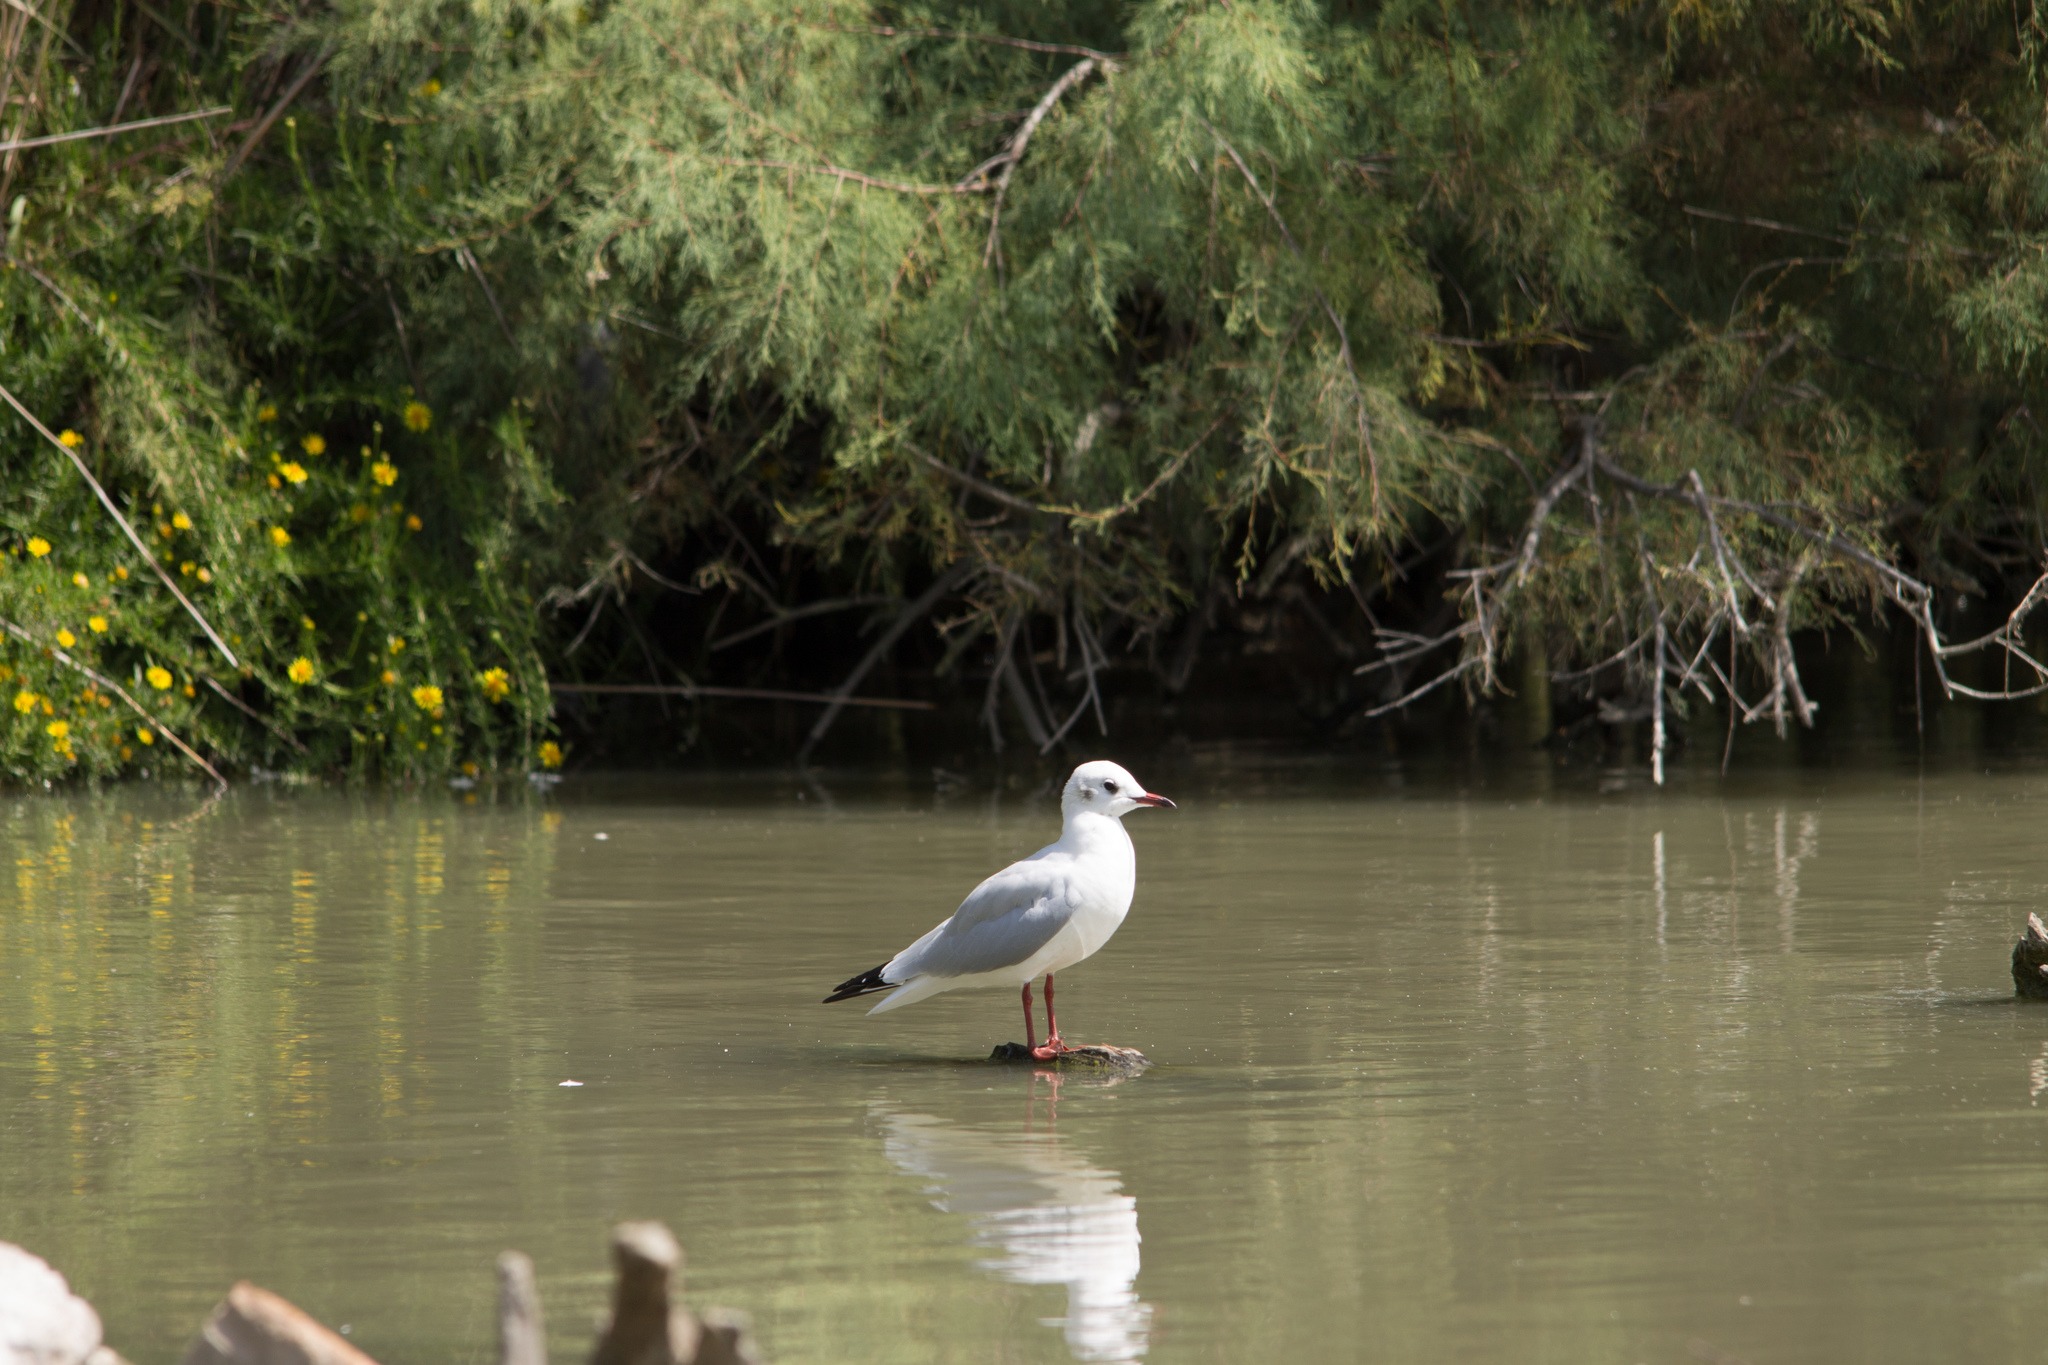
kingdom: Animalia
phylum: Chordata
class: Aves
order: Charadriiformes
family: Laridae
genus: Chroicocephalus
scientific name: Chroicocephalus ridibundus
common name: Black-headed gull
